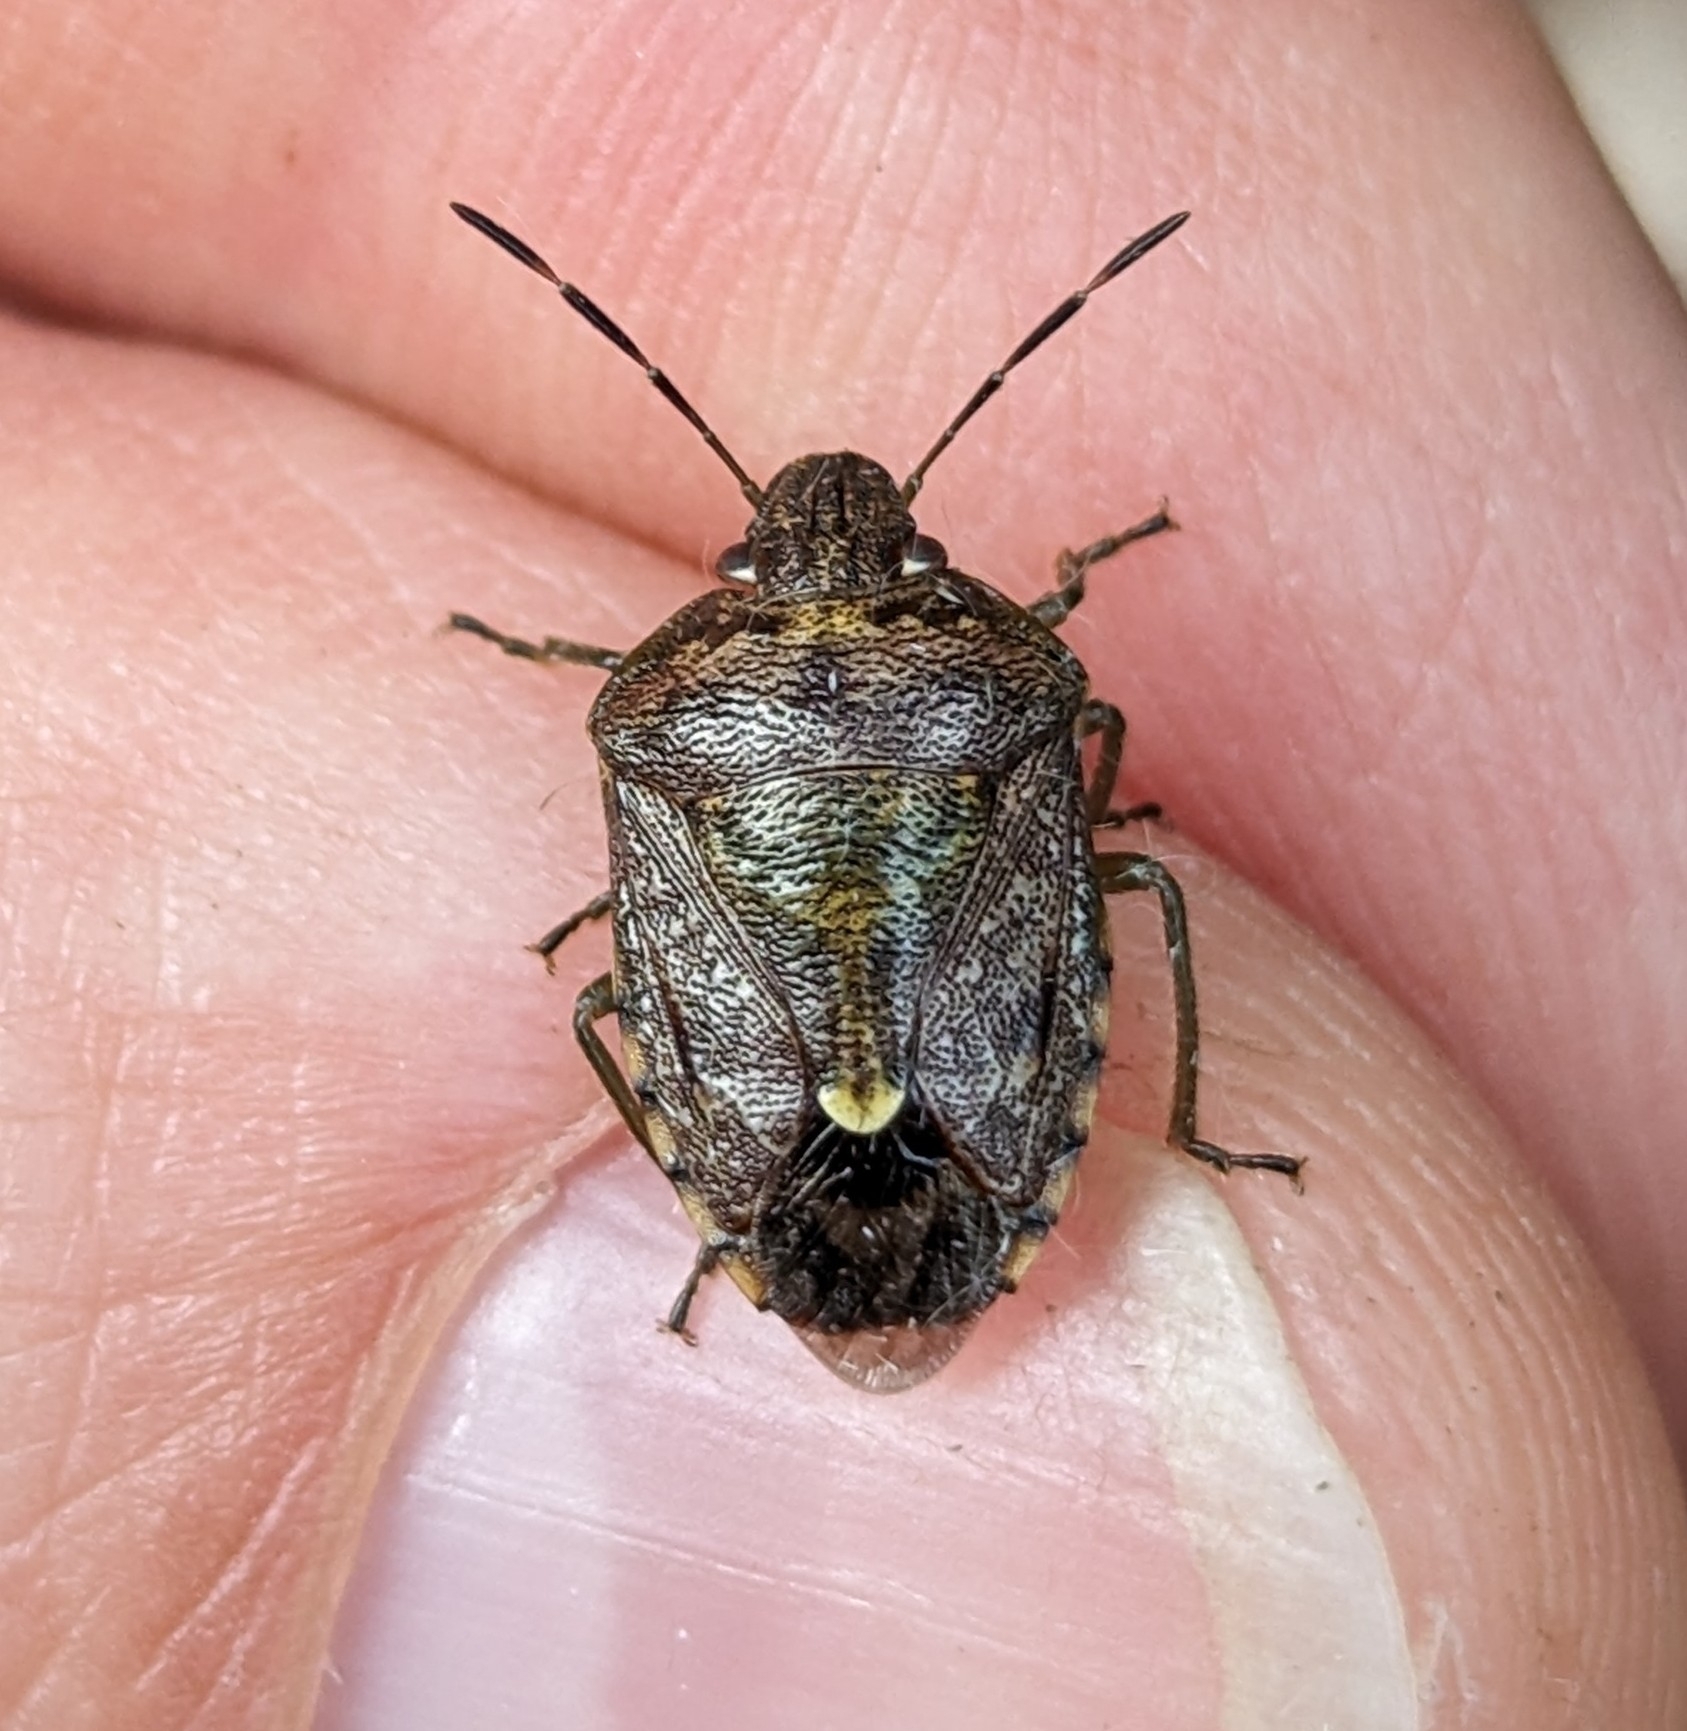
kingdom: Animalia
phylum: Arthropoda
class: Insecta
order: Hemiptera
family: Pentatomidae
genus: Banasa
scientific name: Banasa sordida
